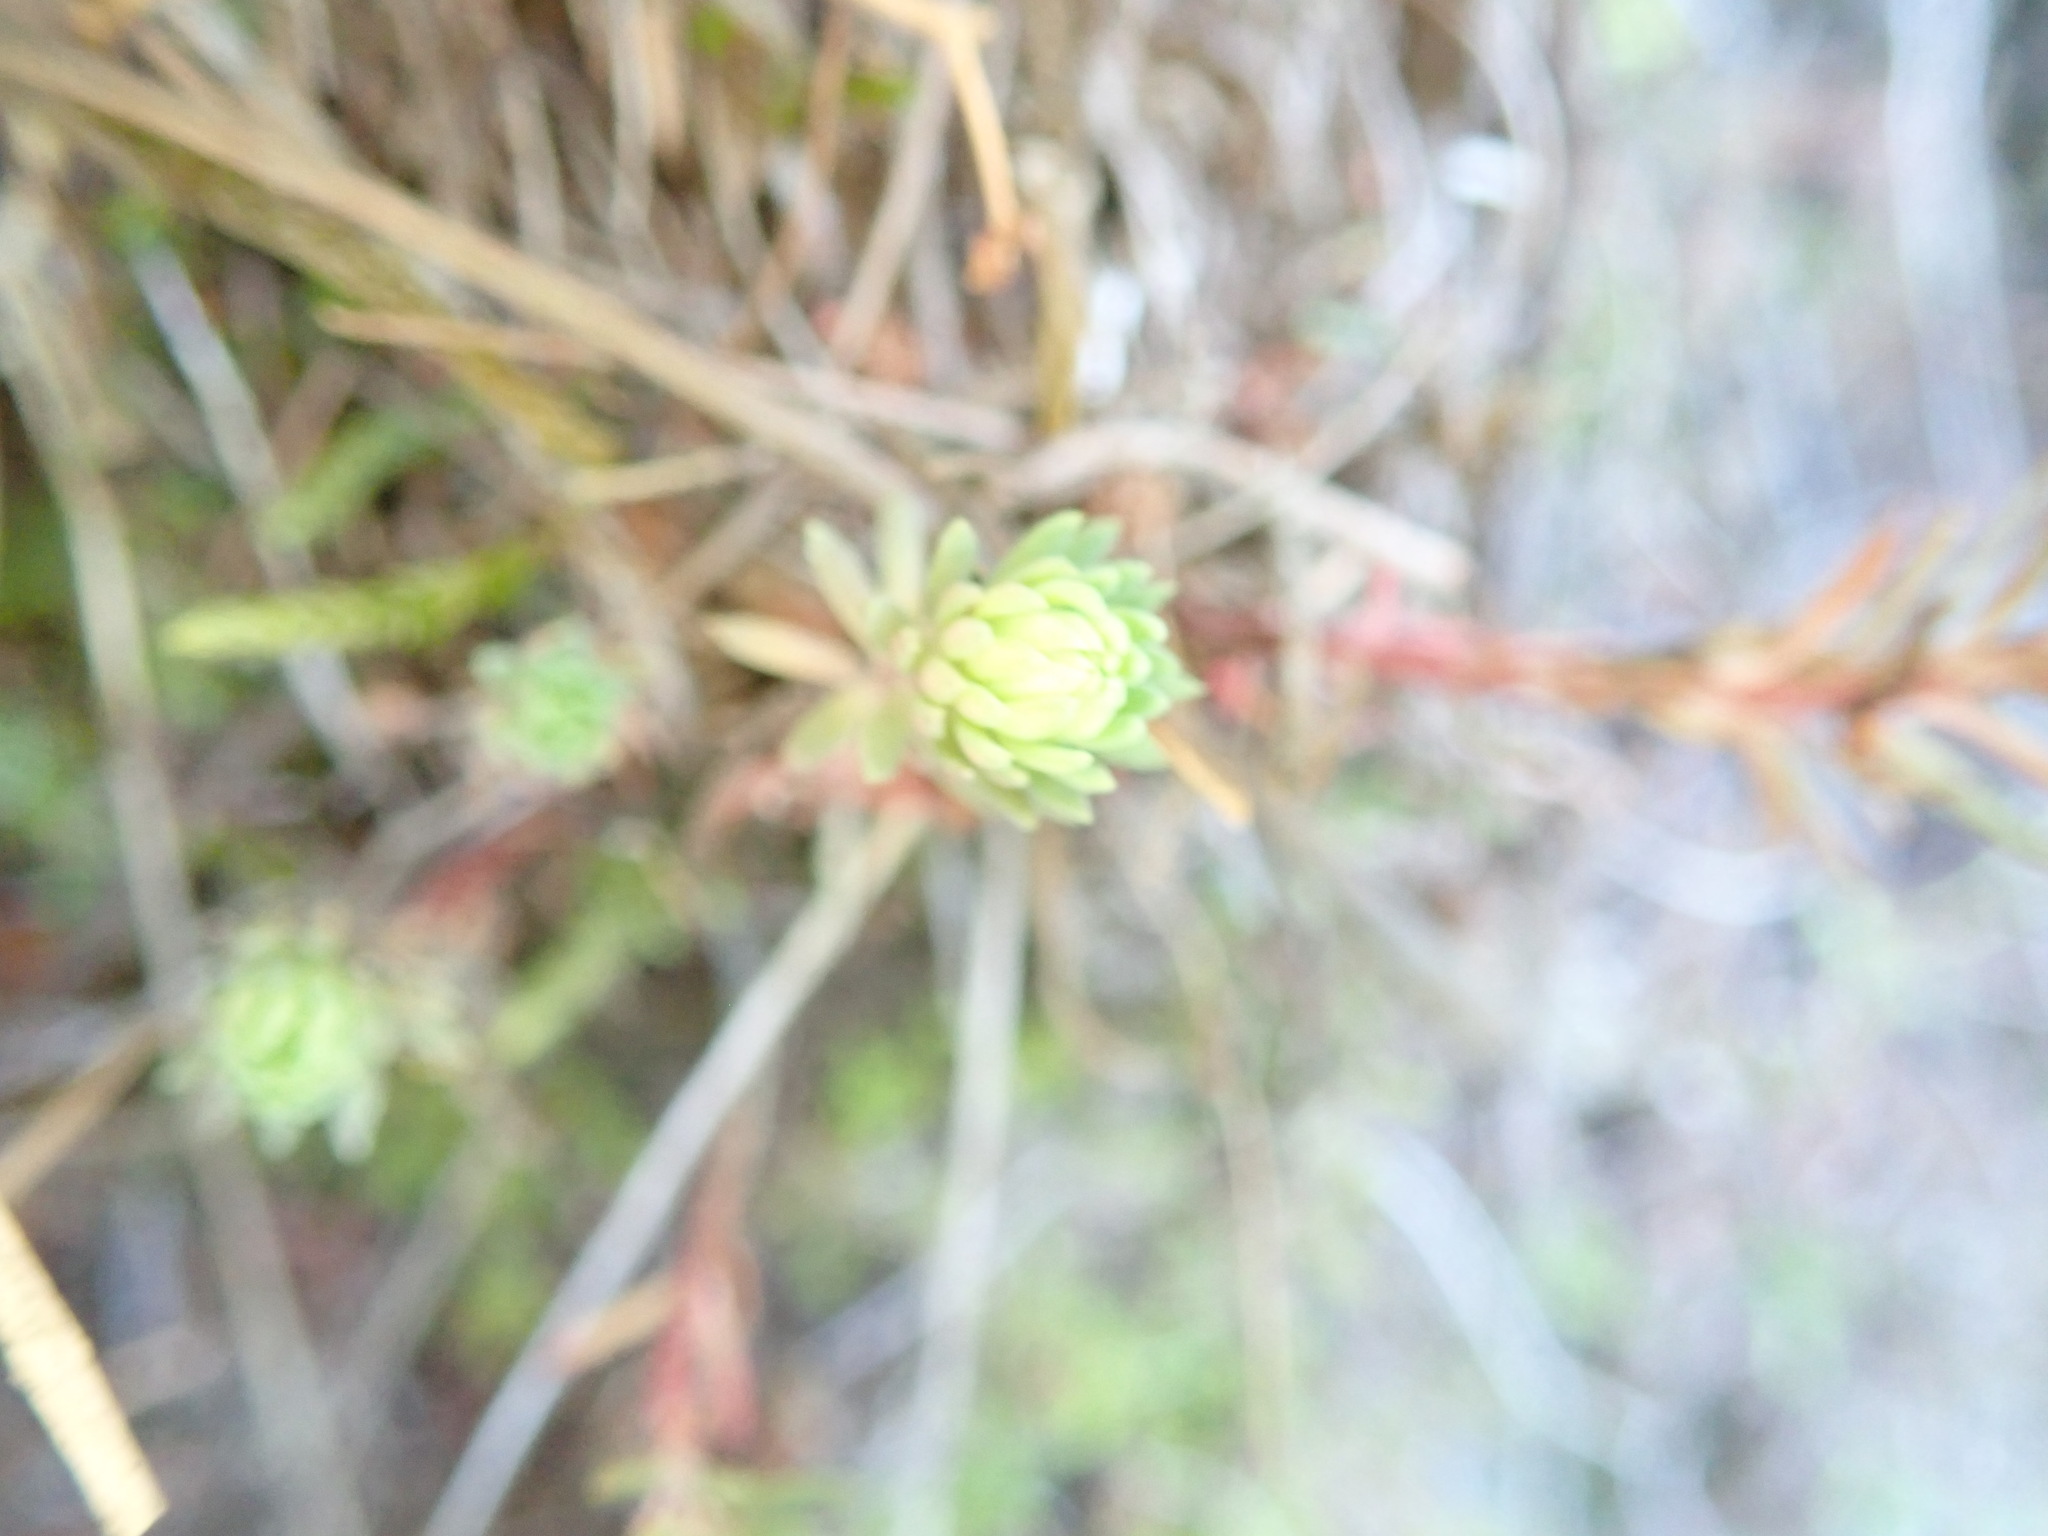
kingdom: Plantae
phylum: Tracheophyta
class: Magnoliopsida
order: Saxifragales
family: Crassulaceae
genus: Petrosedum
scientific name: Petrosedum forsterianum
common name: Forster's stonecrop
